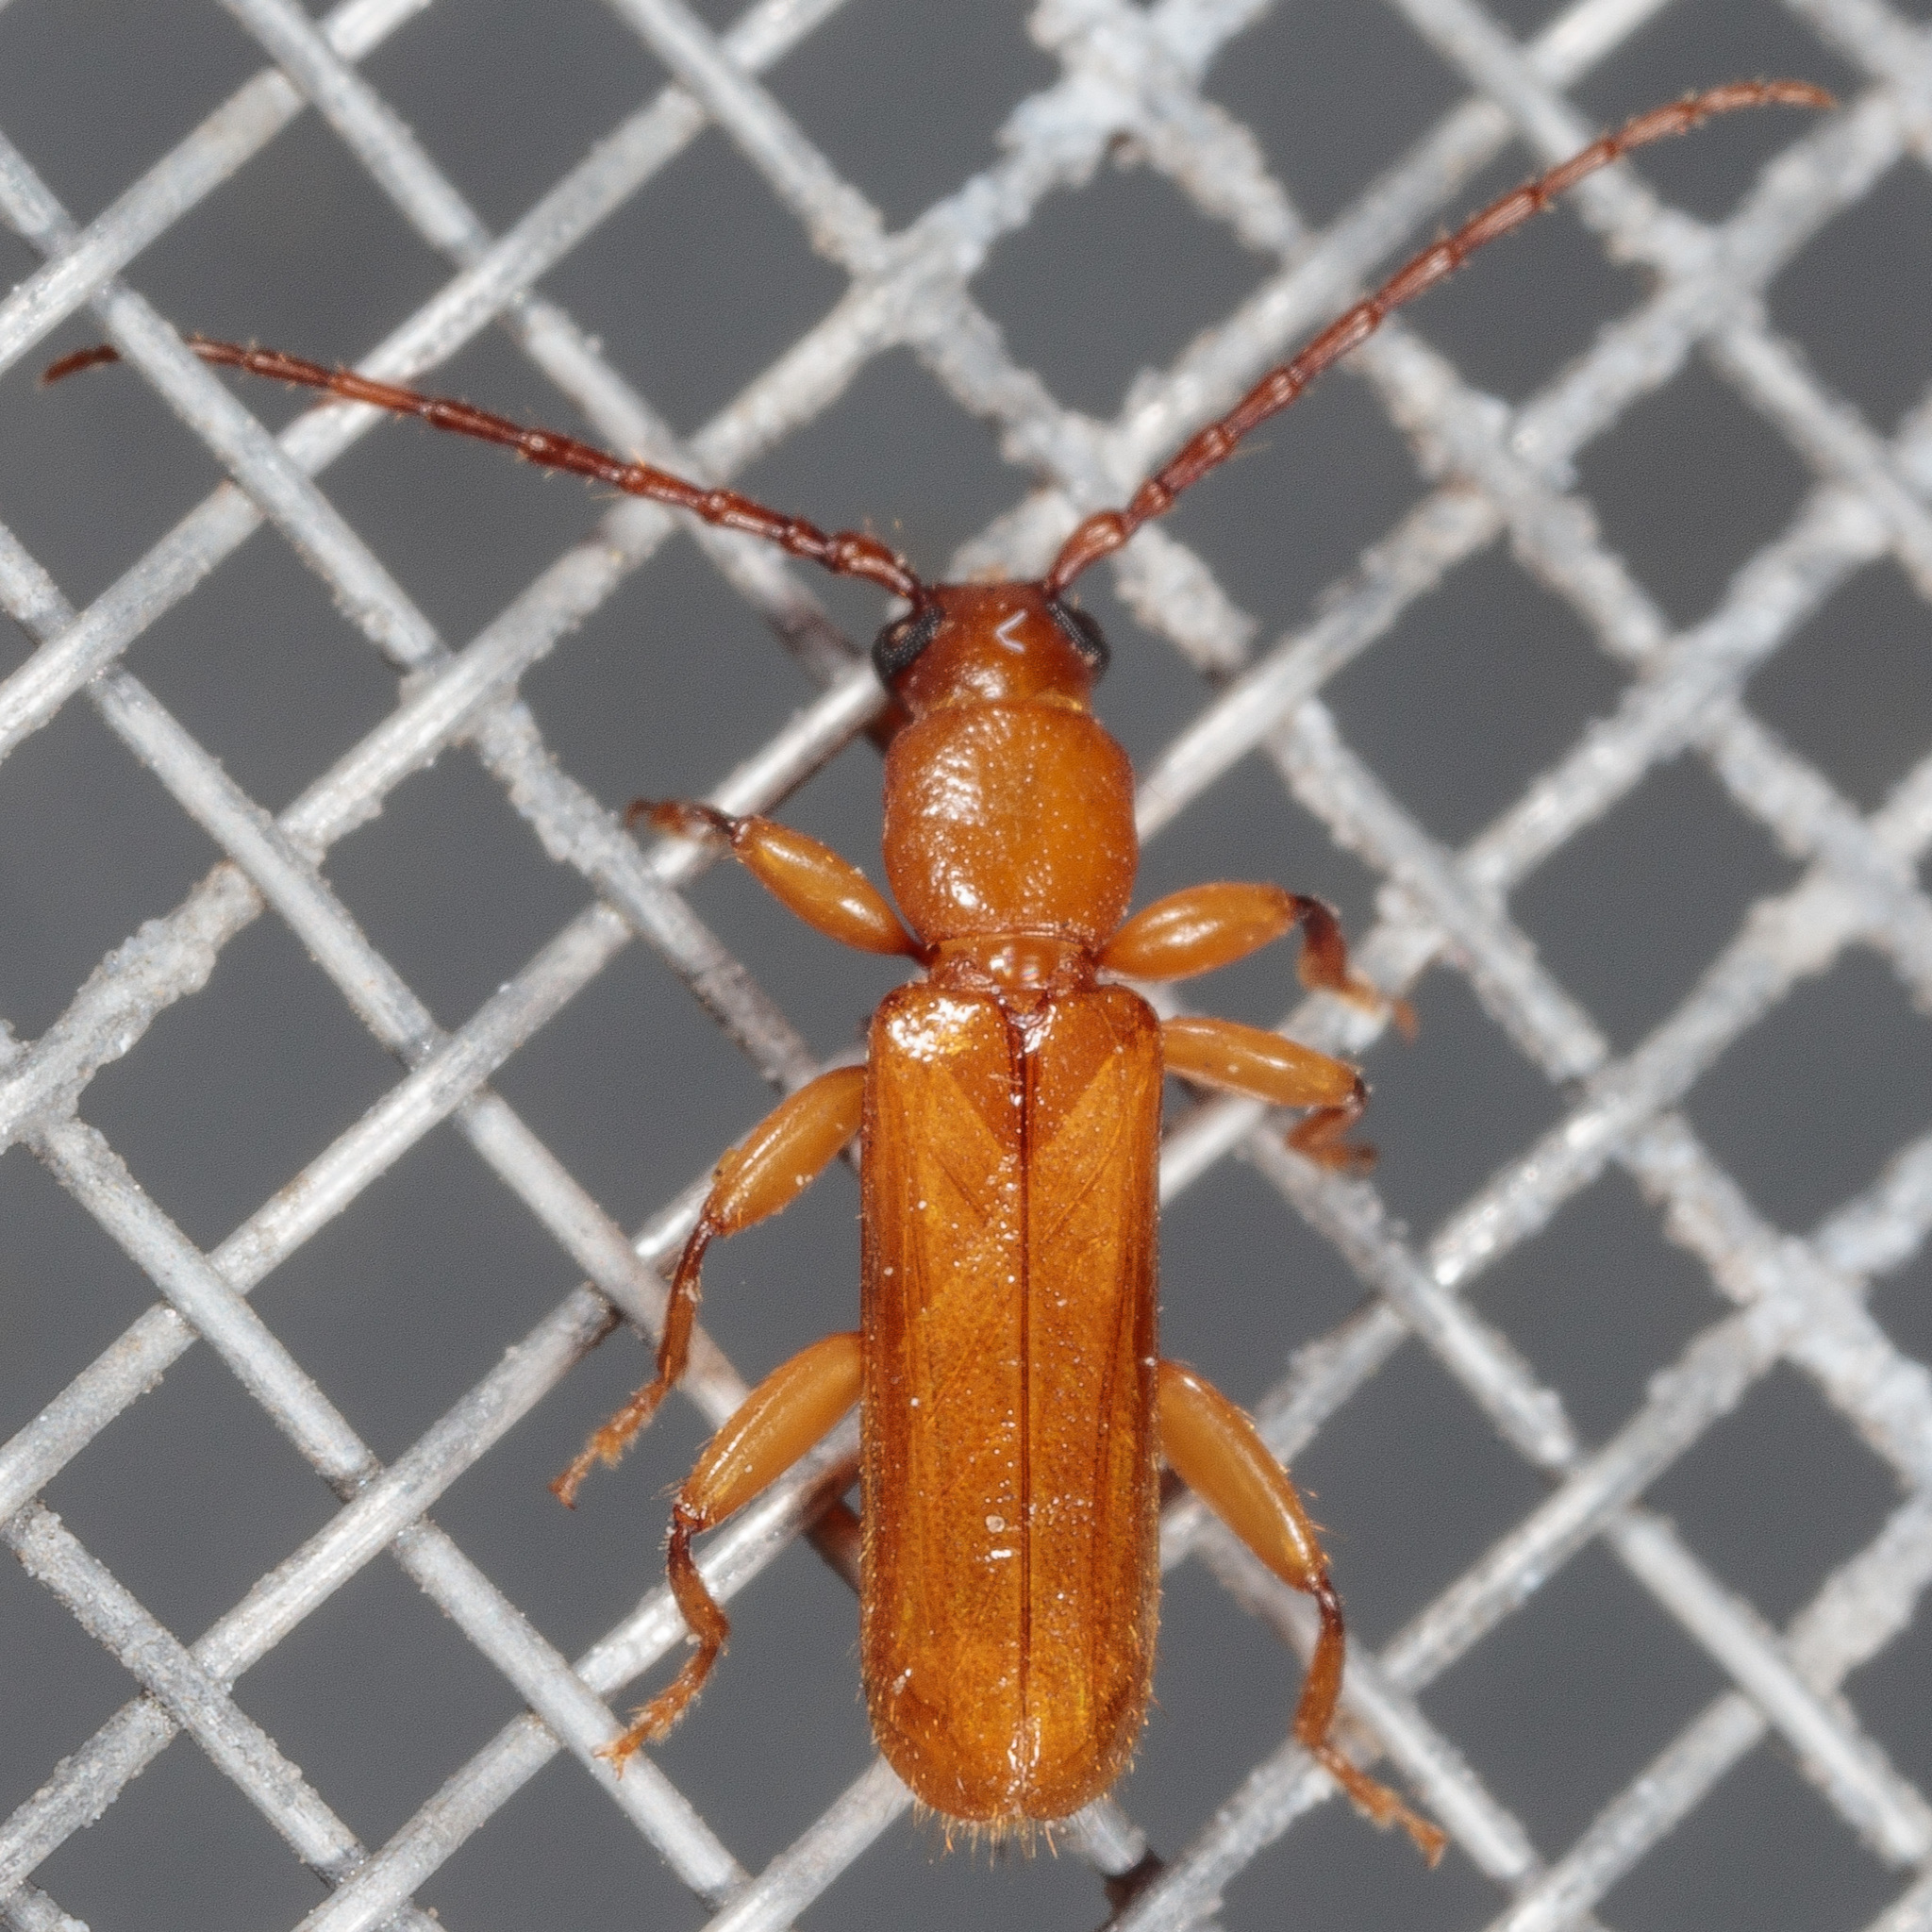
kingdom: Animalia
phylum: Arthropoda
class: Insecta
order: Coleoptera
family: Cerambycidae
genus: Smodicum
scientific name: Smodicum cucujiforme
